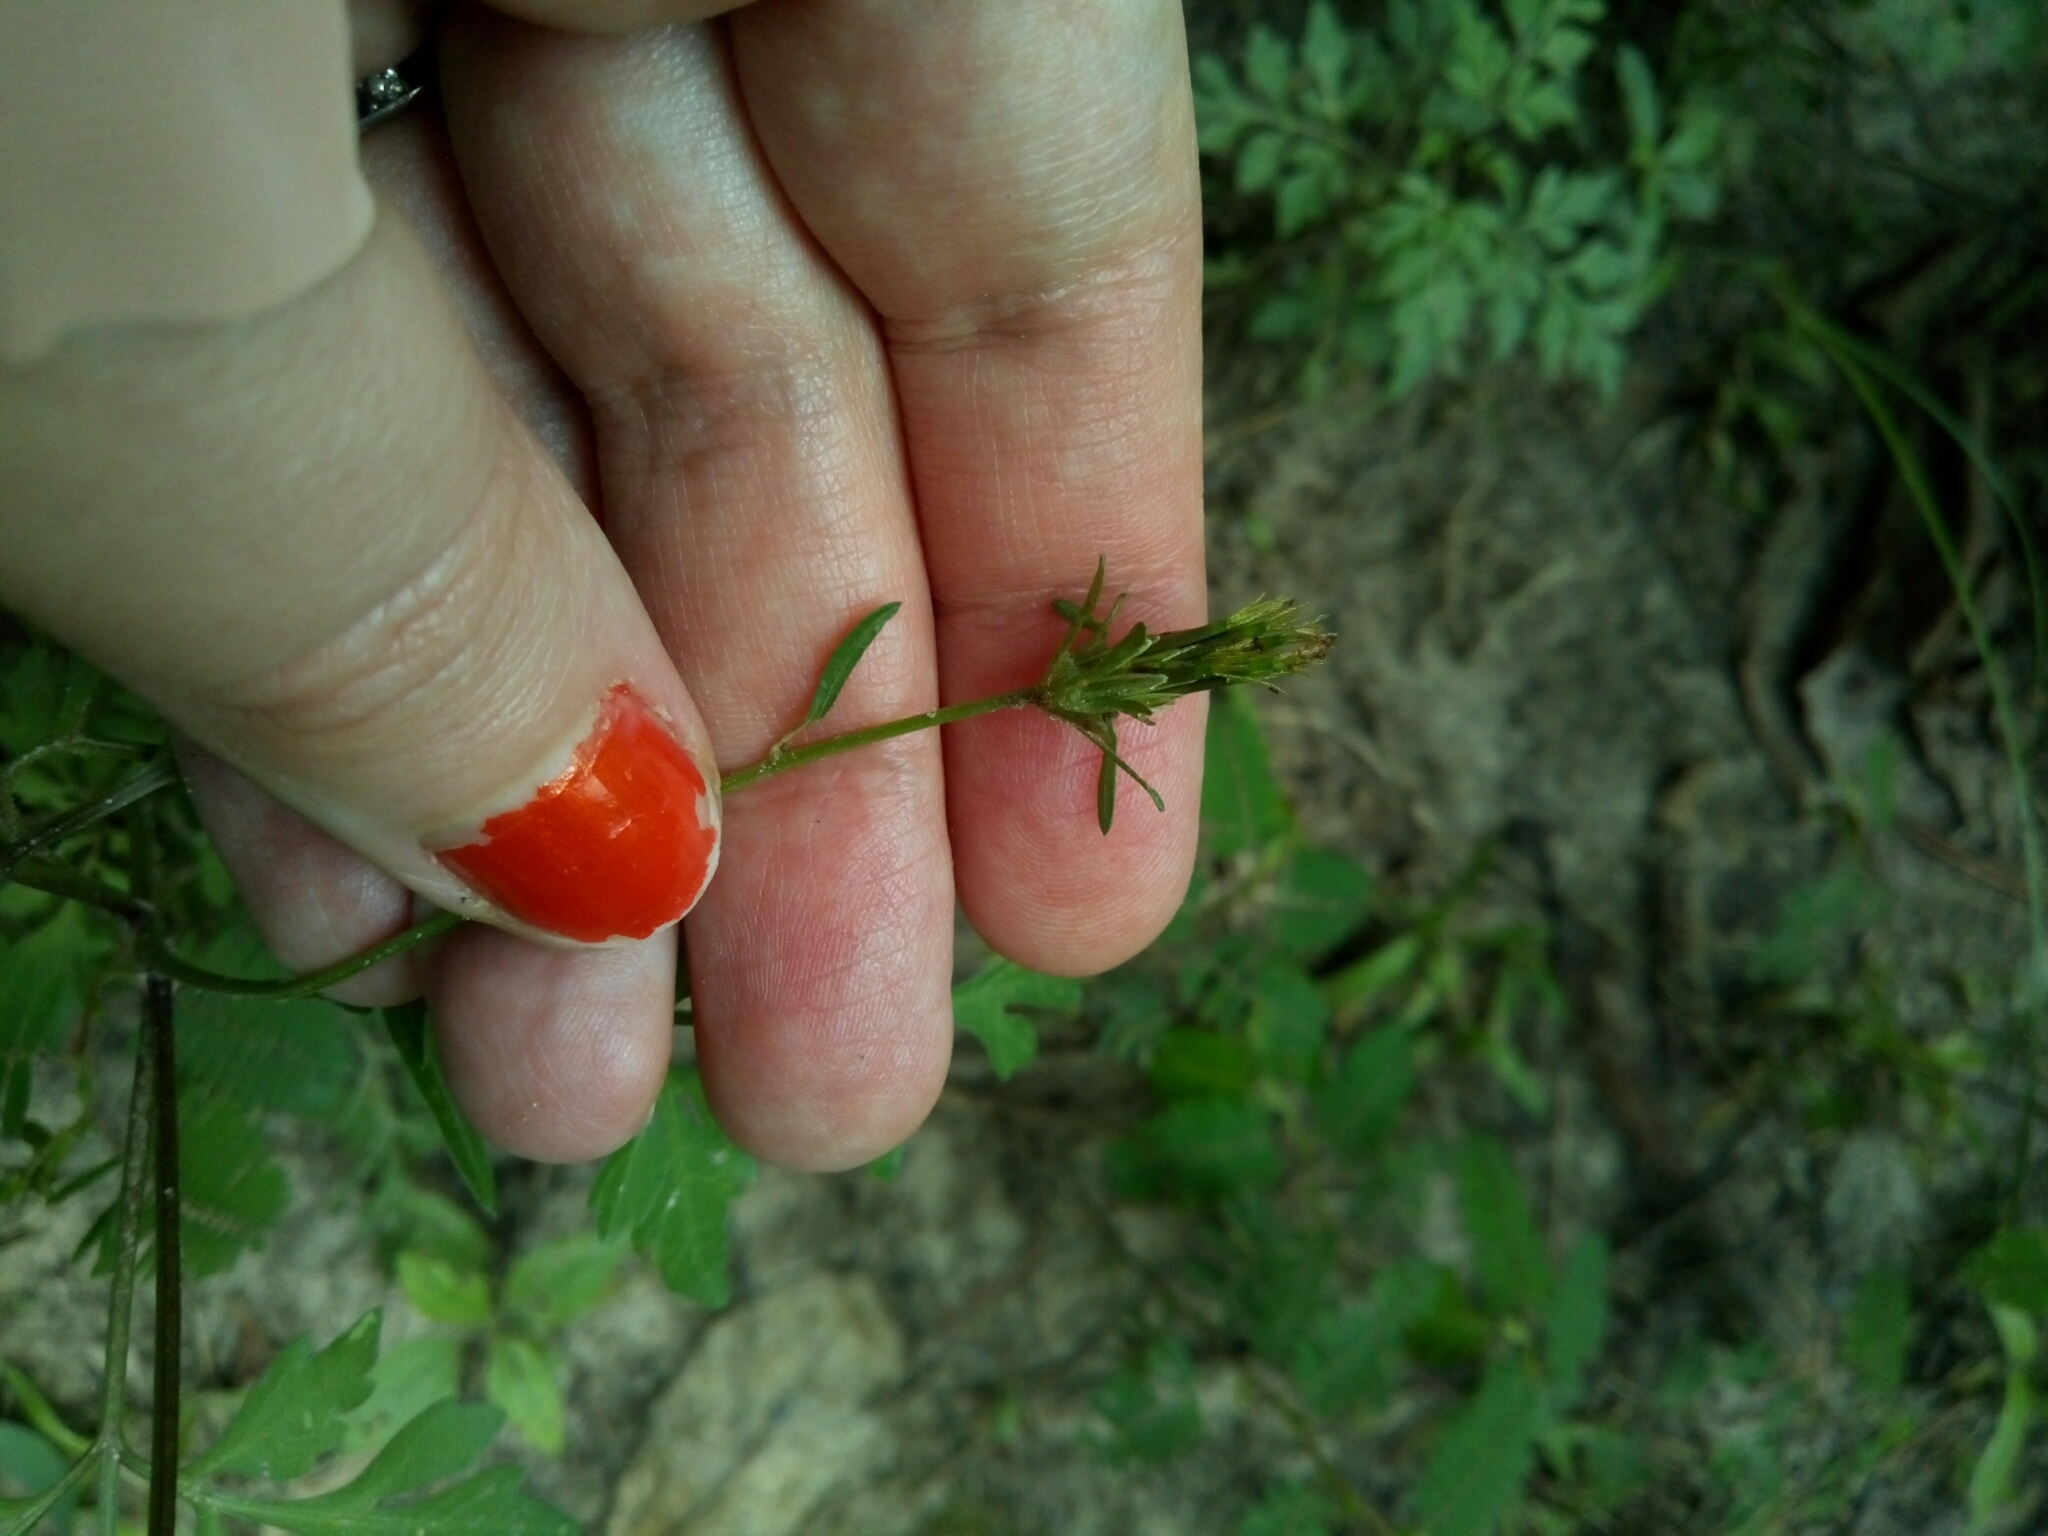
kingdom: Plantae
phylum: Tracheophyta
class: Magnoliopsida
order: Asterales
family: Asteraceae
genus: Bidens
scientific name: Bidens bipinnata
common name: Spanish-needles
